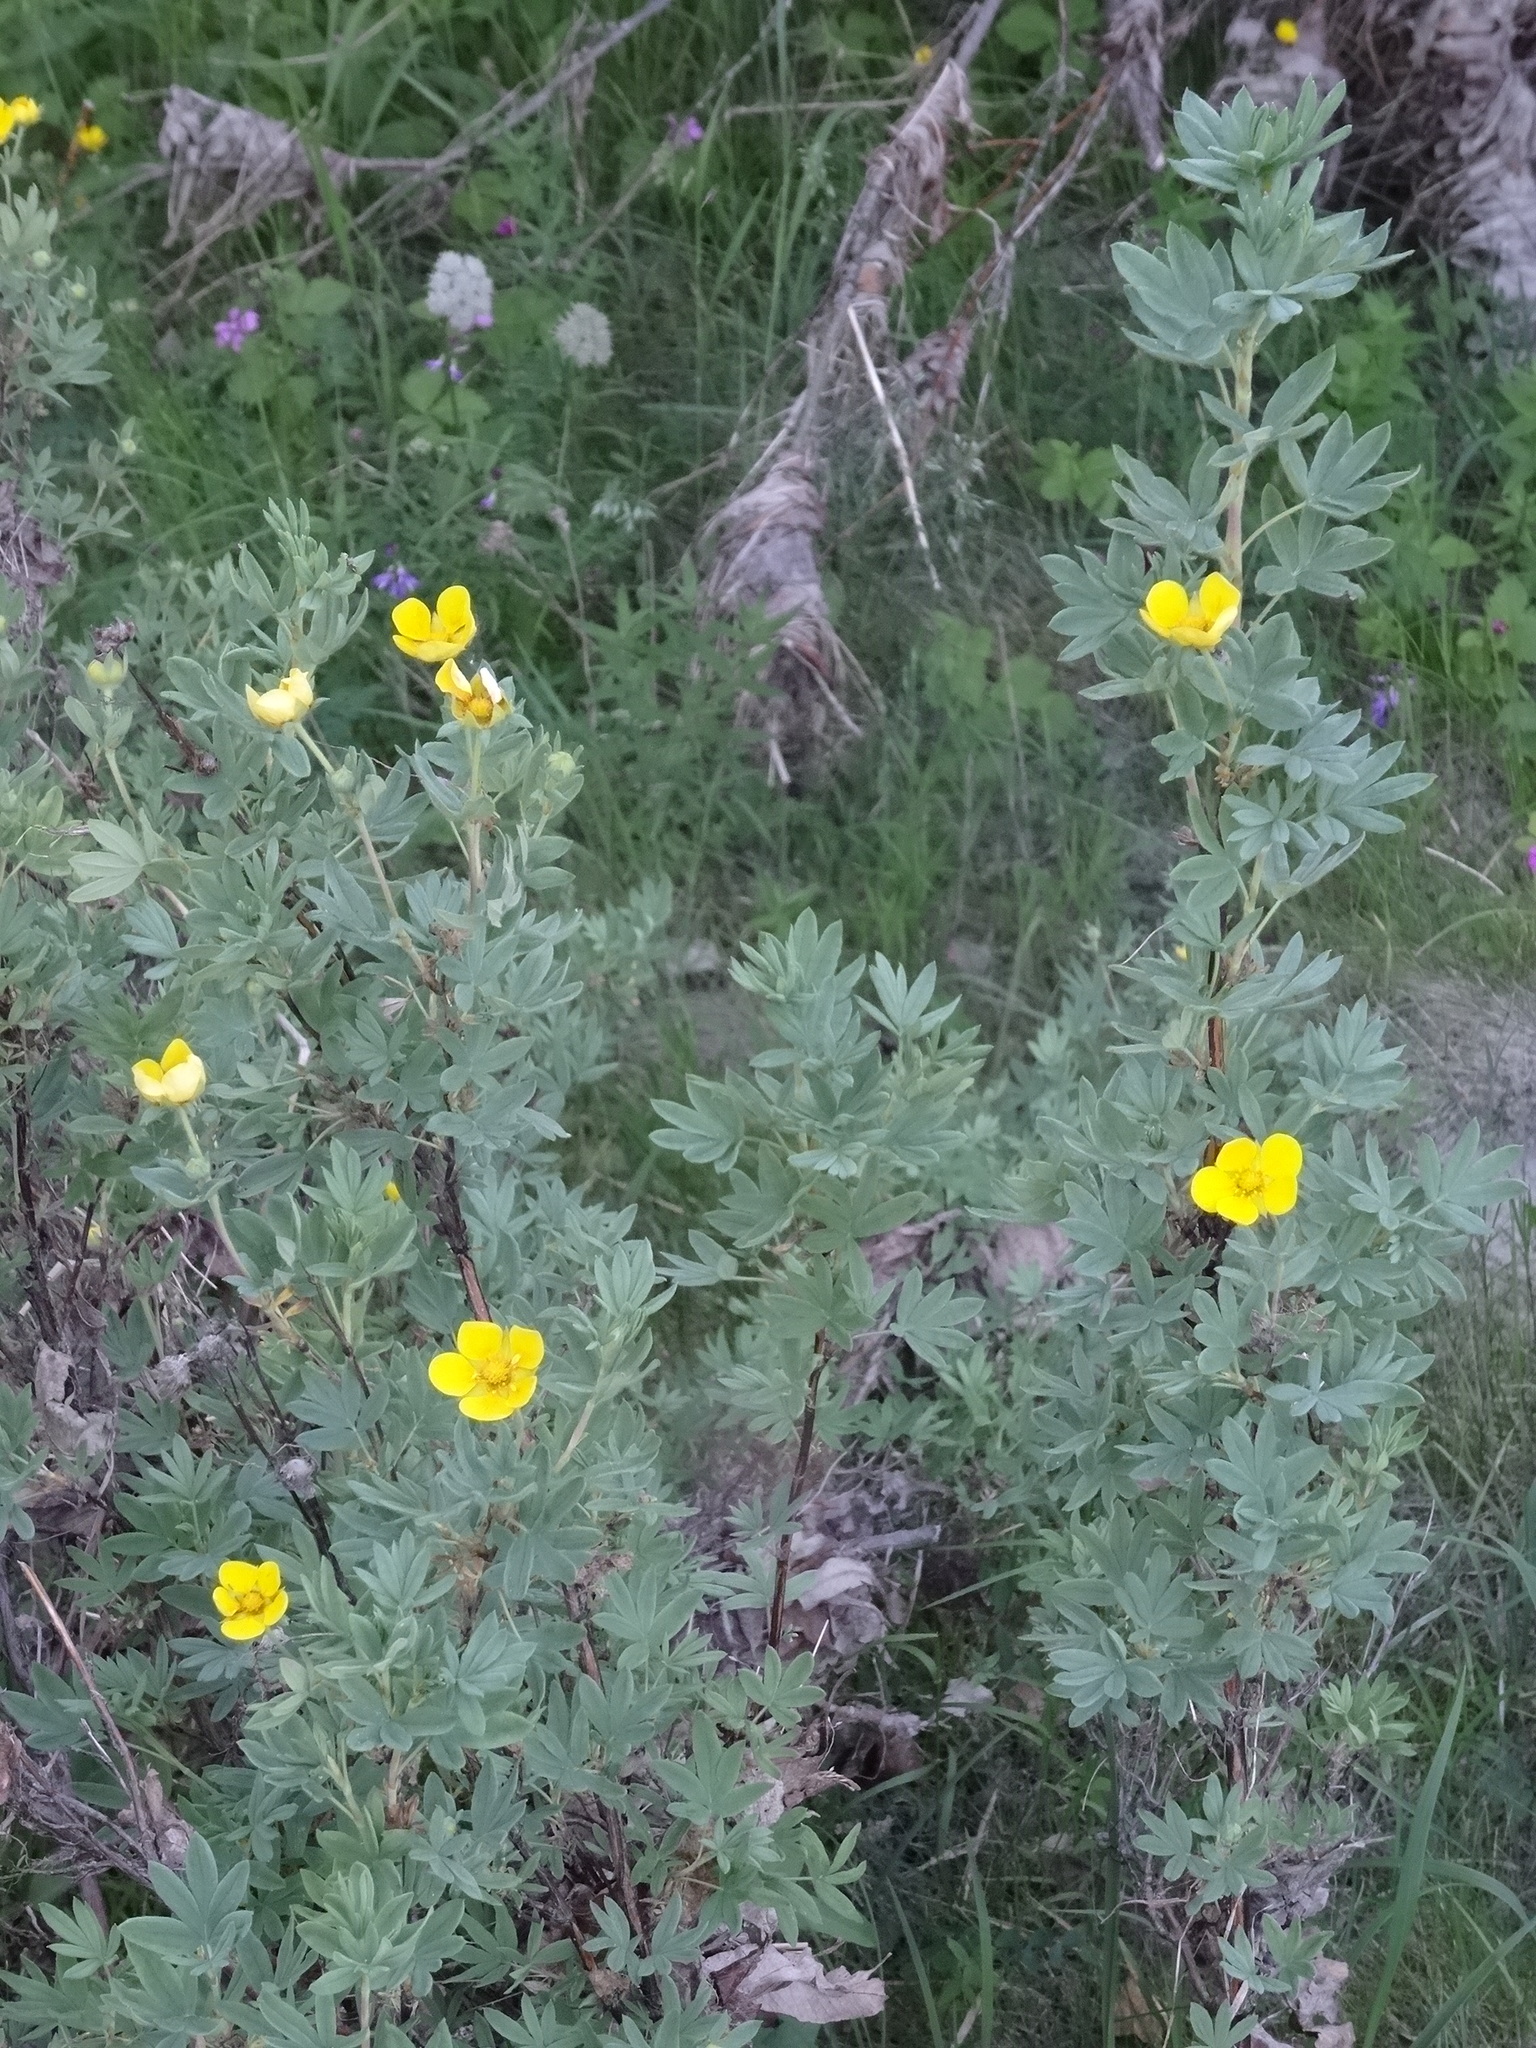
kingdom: Plantae
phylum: Tracheophyta
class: Magnoliopsida
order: Rosales
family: Rosaceae
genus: Dasiphora
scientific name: Dasiphora fruticosa
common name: Shrubby cinquefoil
